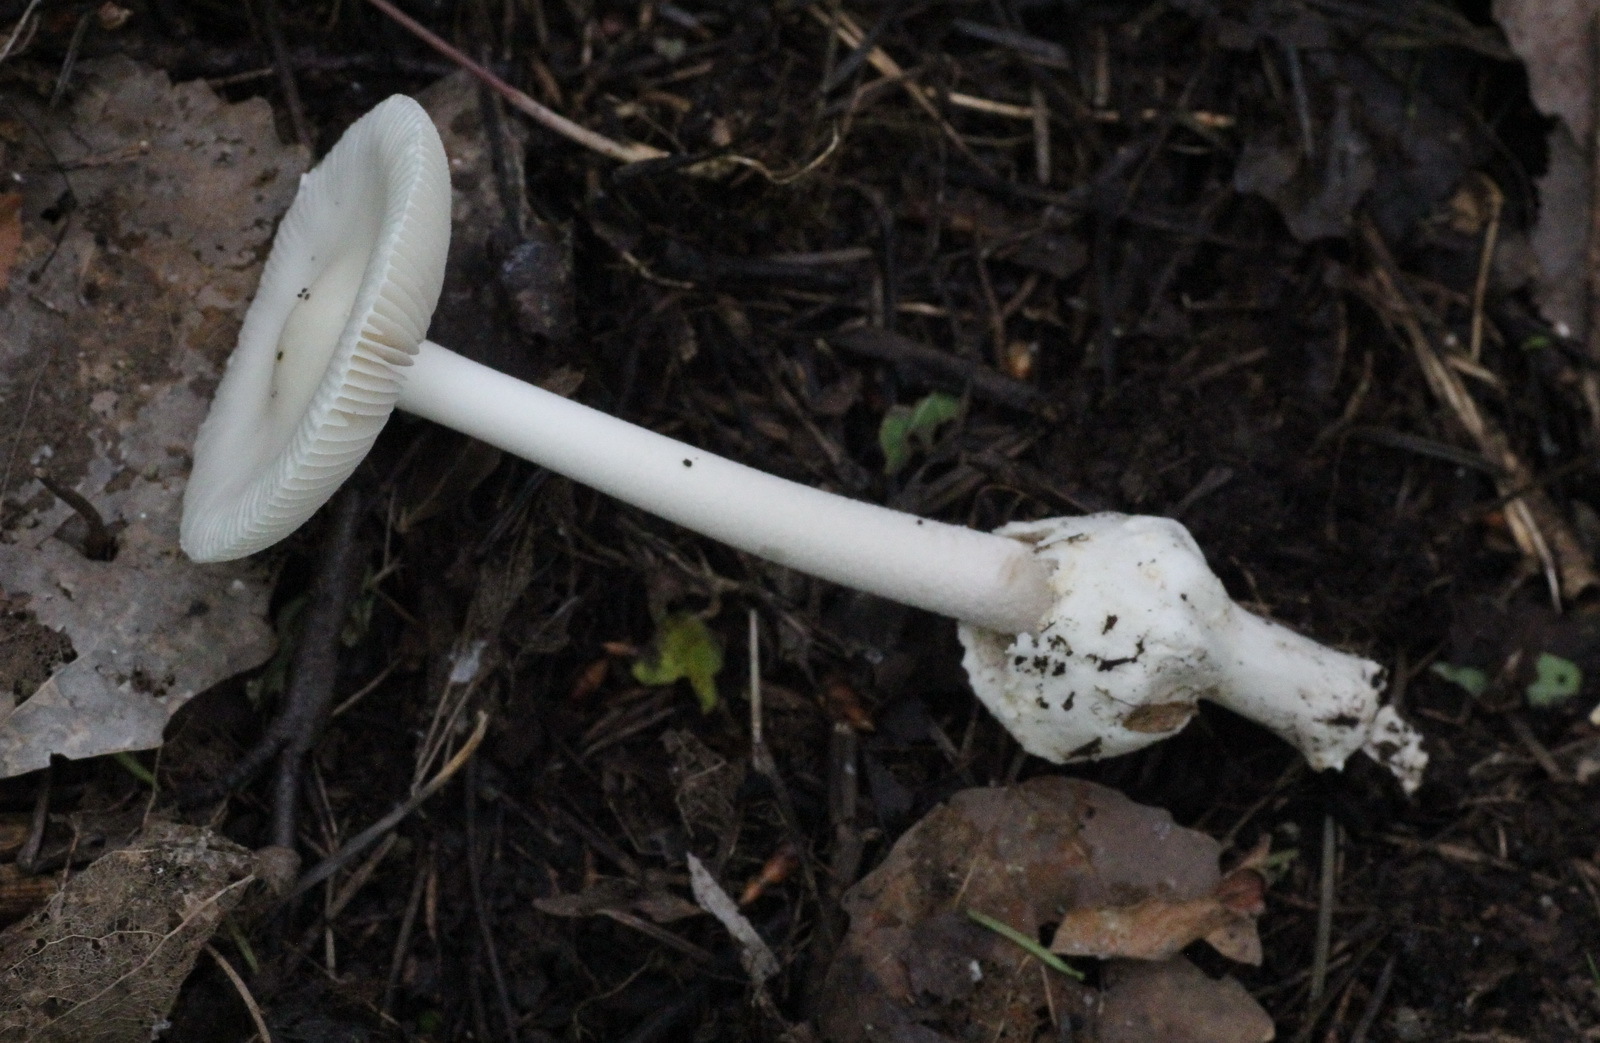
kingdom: Fungi
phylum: Basidiomycota
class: Agaricomycetes
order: Agaricales
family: Amanitaceae
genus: Amanita
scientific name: Amanita vaginata
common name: Grisette
